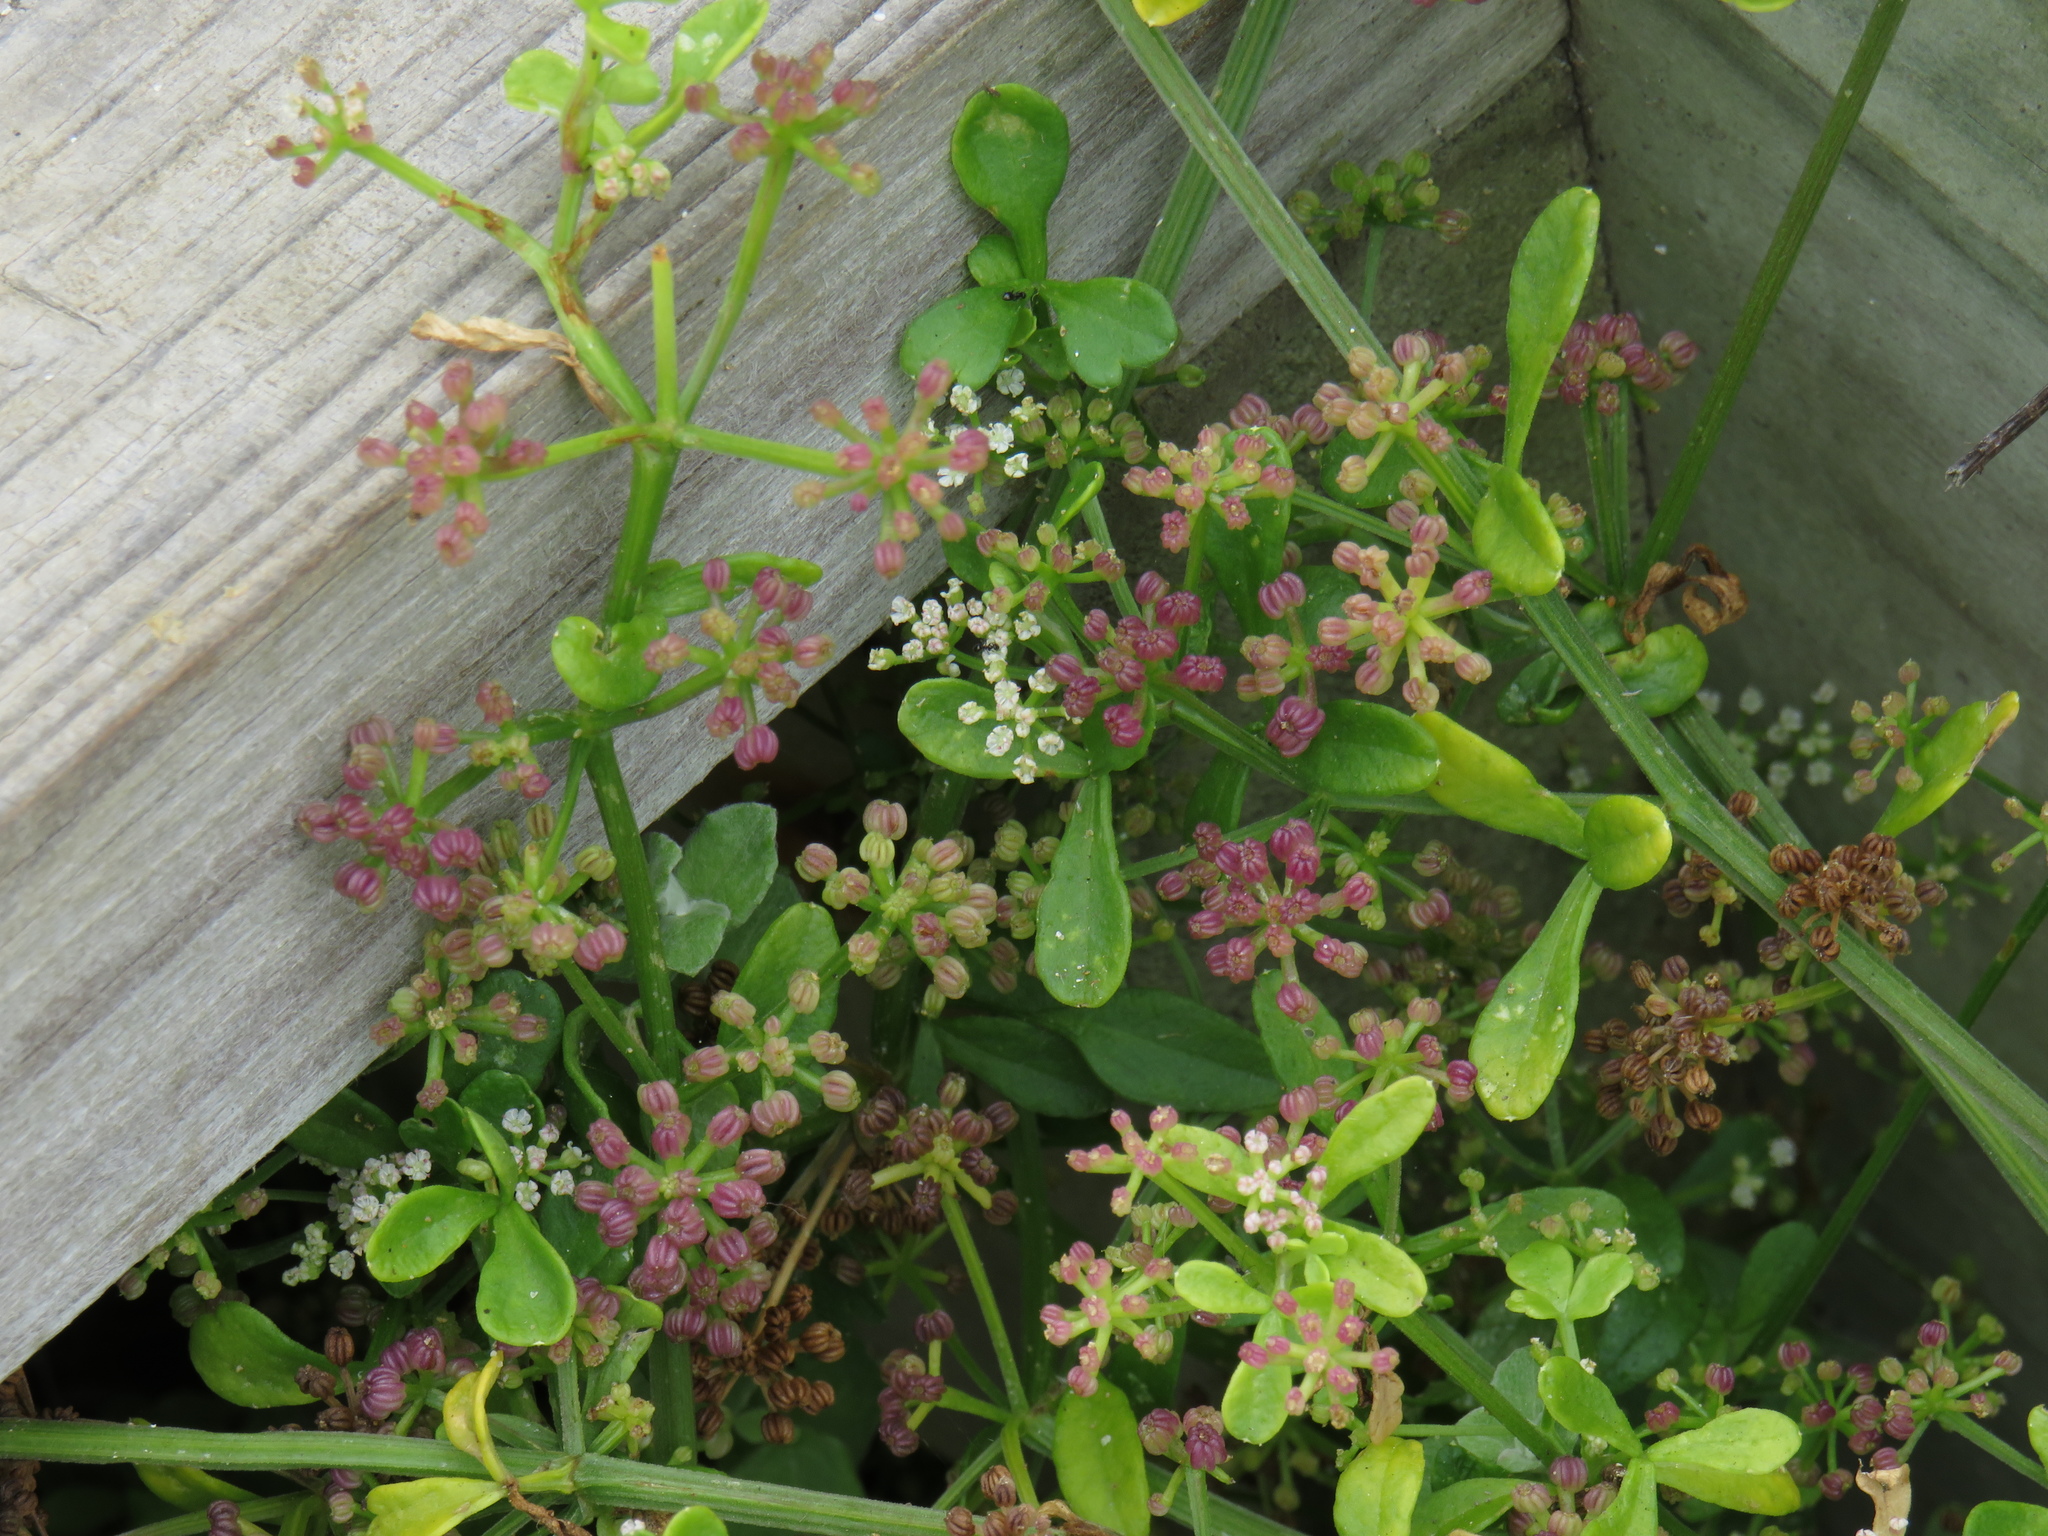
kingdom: Plantae
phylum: Tracheophyta
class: Magnoliopsida
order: Apiales
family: Apiaceae
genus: Apium
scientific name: Apium decumbens
